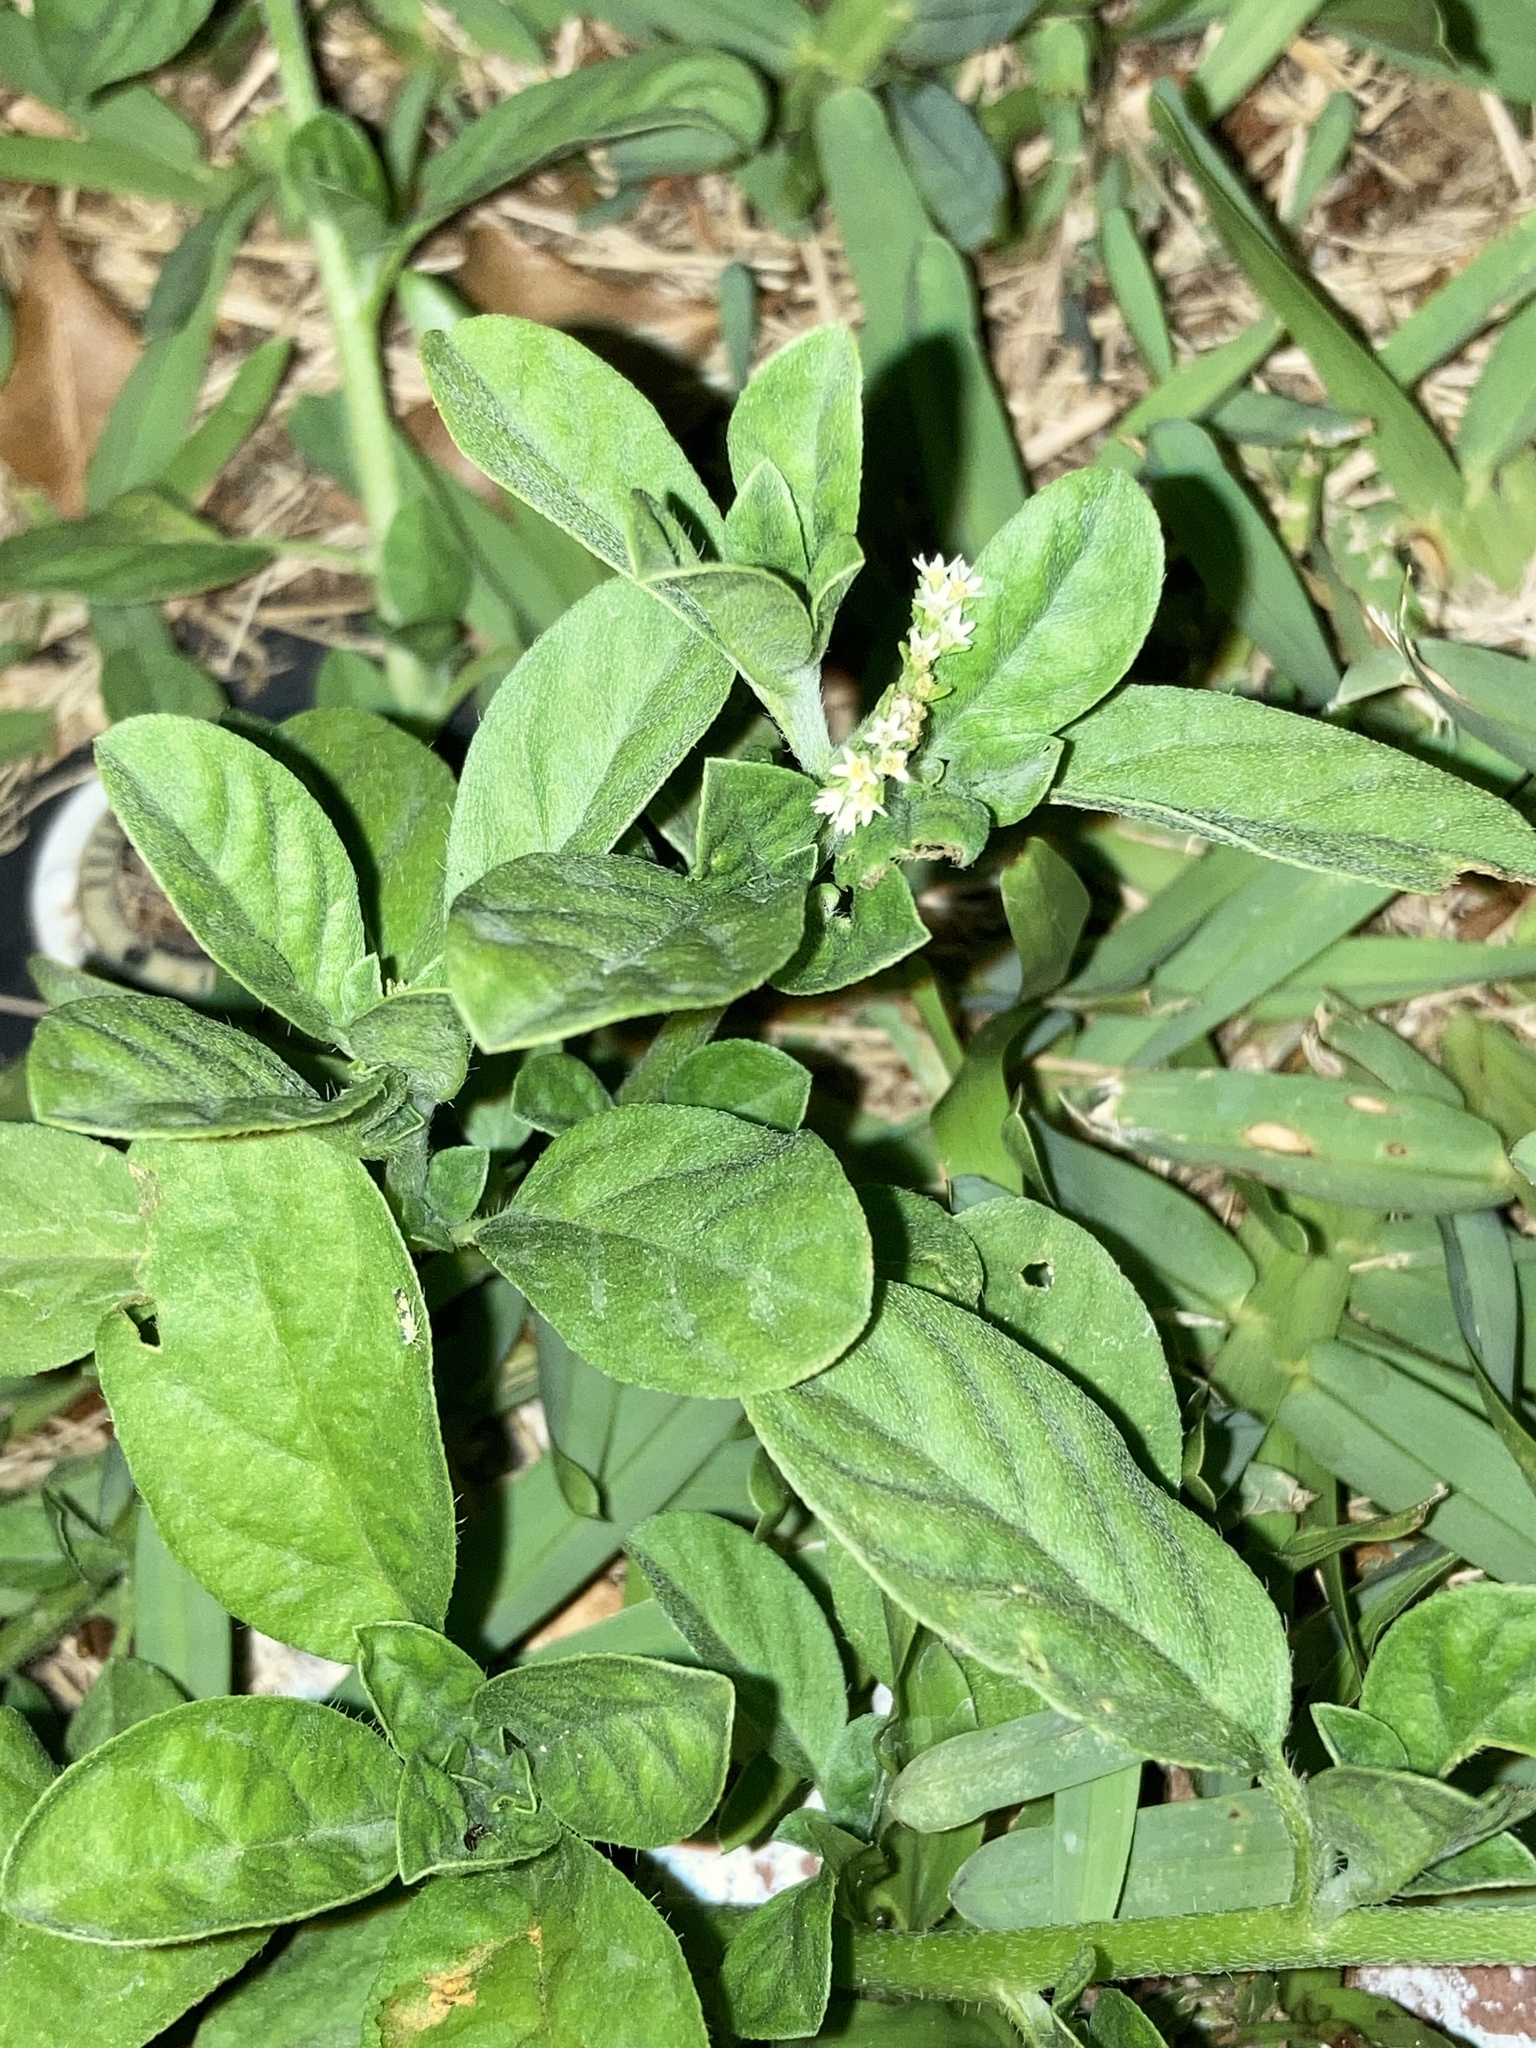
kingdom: Plantae
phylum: Tracheophyta
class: Magnoliopsida
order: Boraginales
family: Heliotropiaceae
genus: Euploca
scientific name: Euploca procumbens
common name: Fourspike heliotrope
